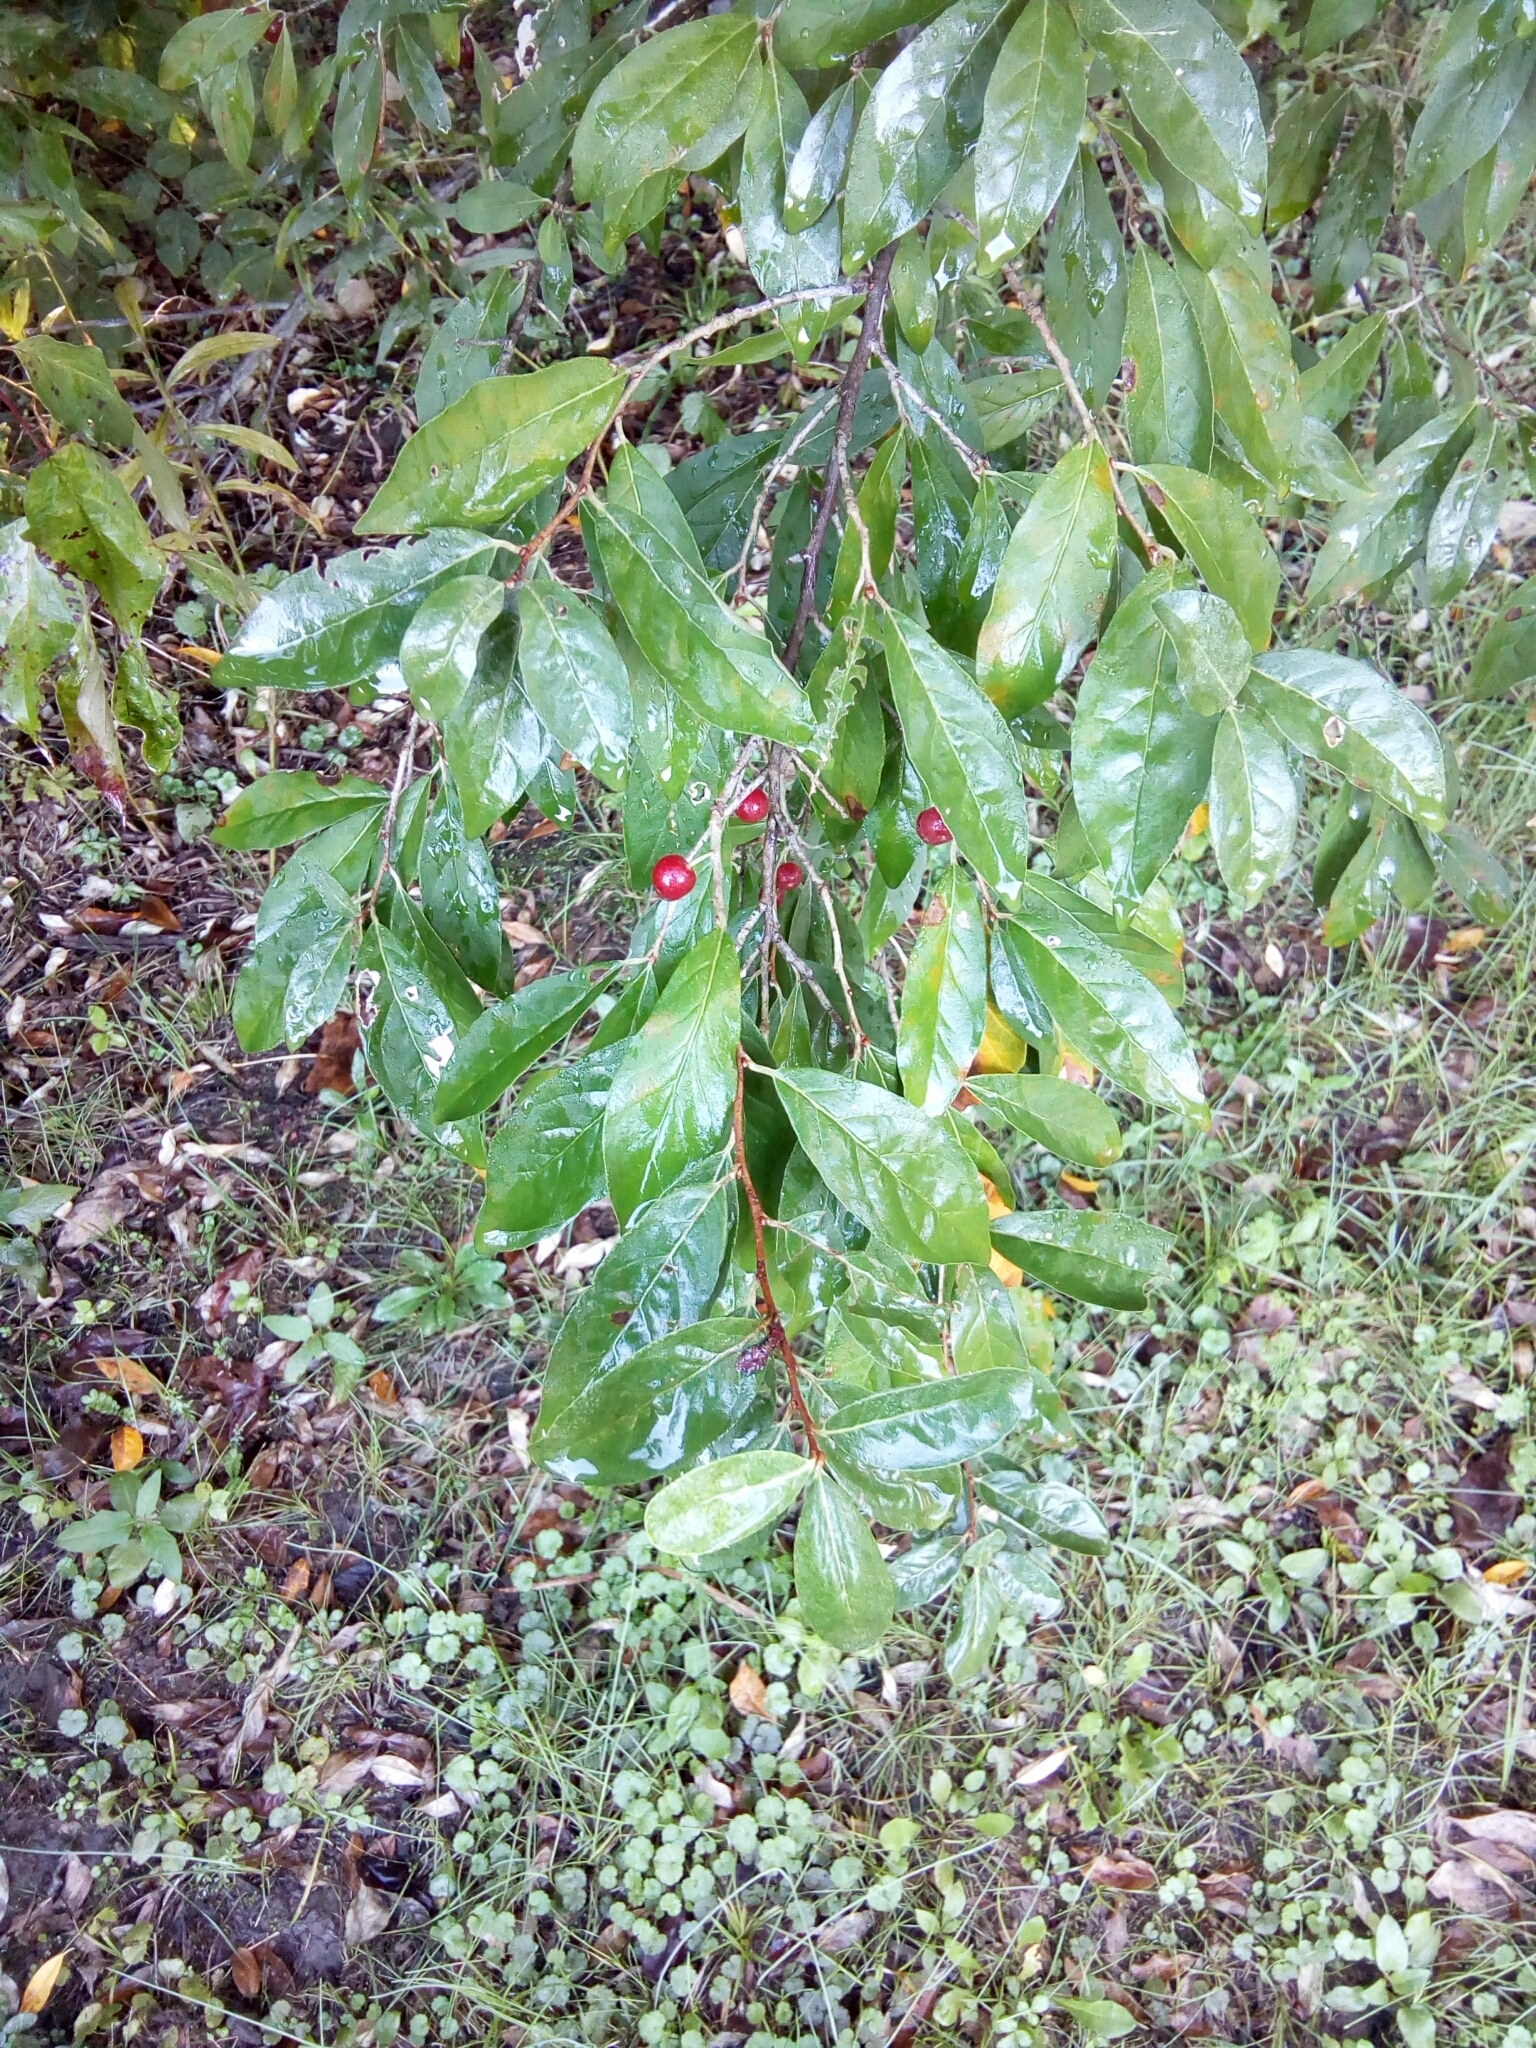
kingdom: Plantae
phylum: Tracheophyta
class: Magnoliopsida
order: Rosales
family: Elaeagnaceae
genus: Elaeagnus
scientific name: Elaeagnus umbellata
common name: Autumn olive
